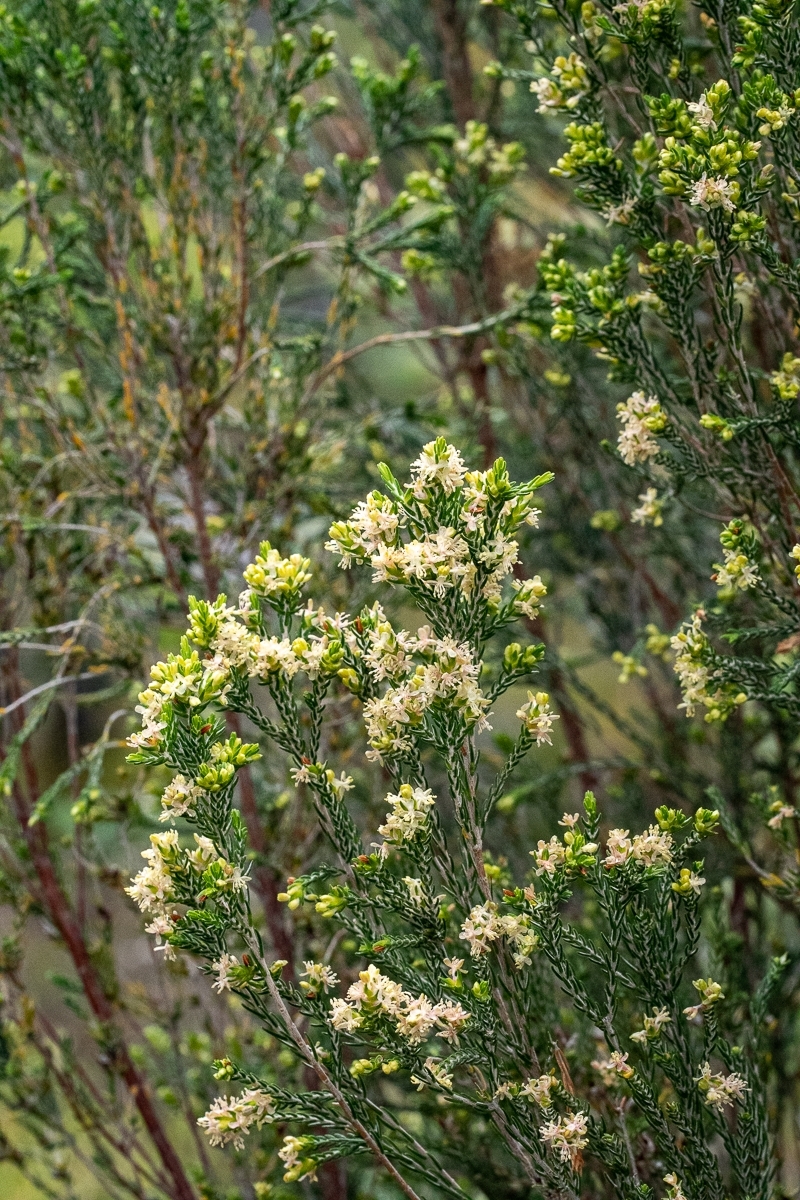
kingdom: Plantae
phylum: Tracheophyta
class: Magnoliopsida
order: Malvales
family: Thymelaeaceae
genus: Passerina
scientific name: Passerina corymbosa
